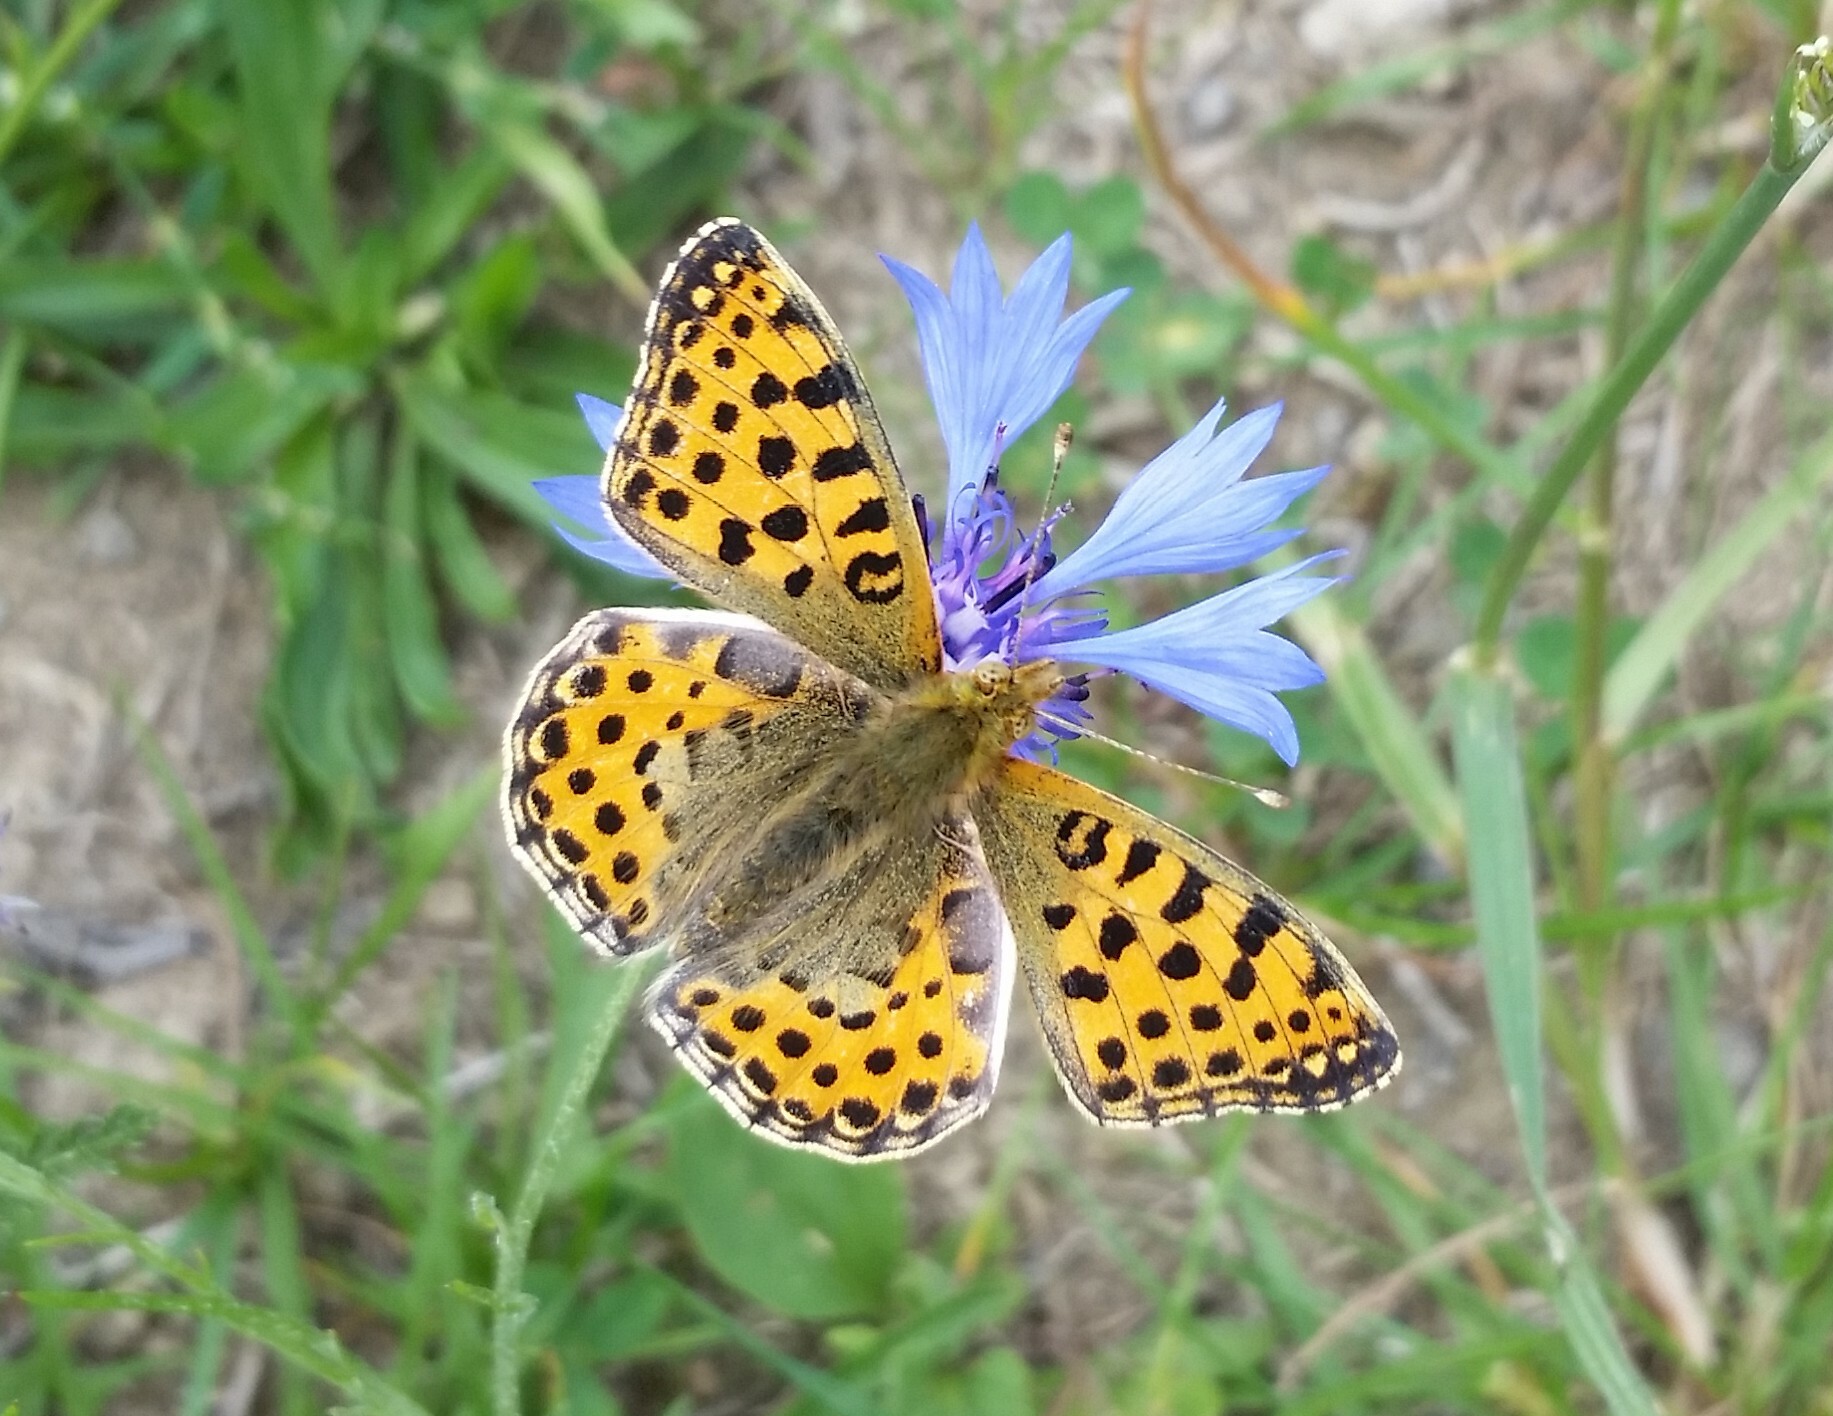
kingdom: Animalia
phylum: Arthropoda
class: Insecta
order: Lepidoptera
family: Nymphalidae
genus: Issoria
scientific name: Issoria lathonia
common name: Queen of spain fritillary
